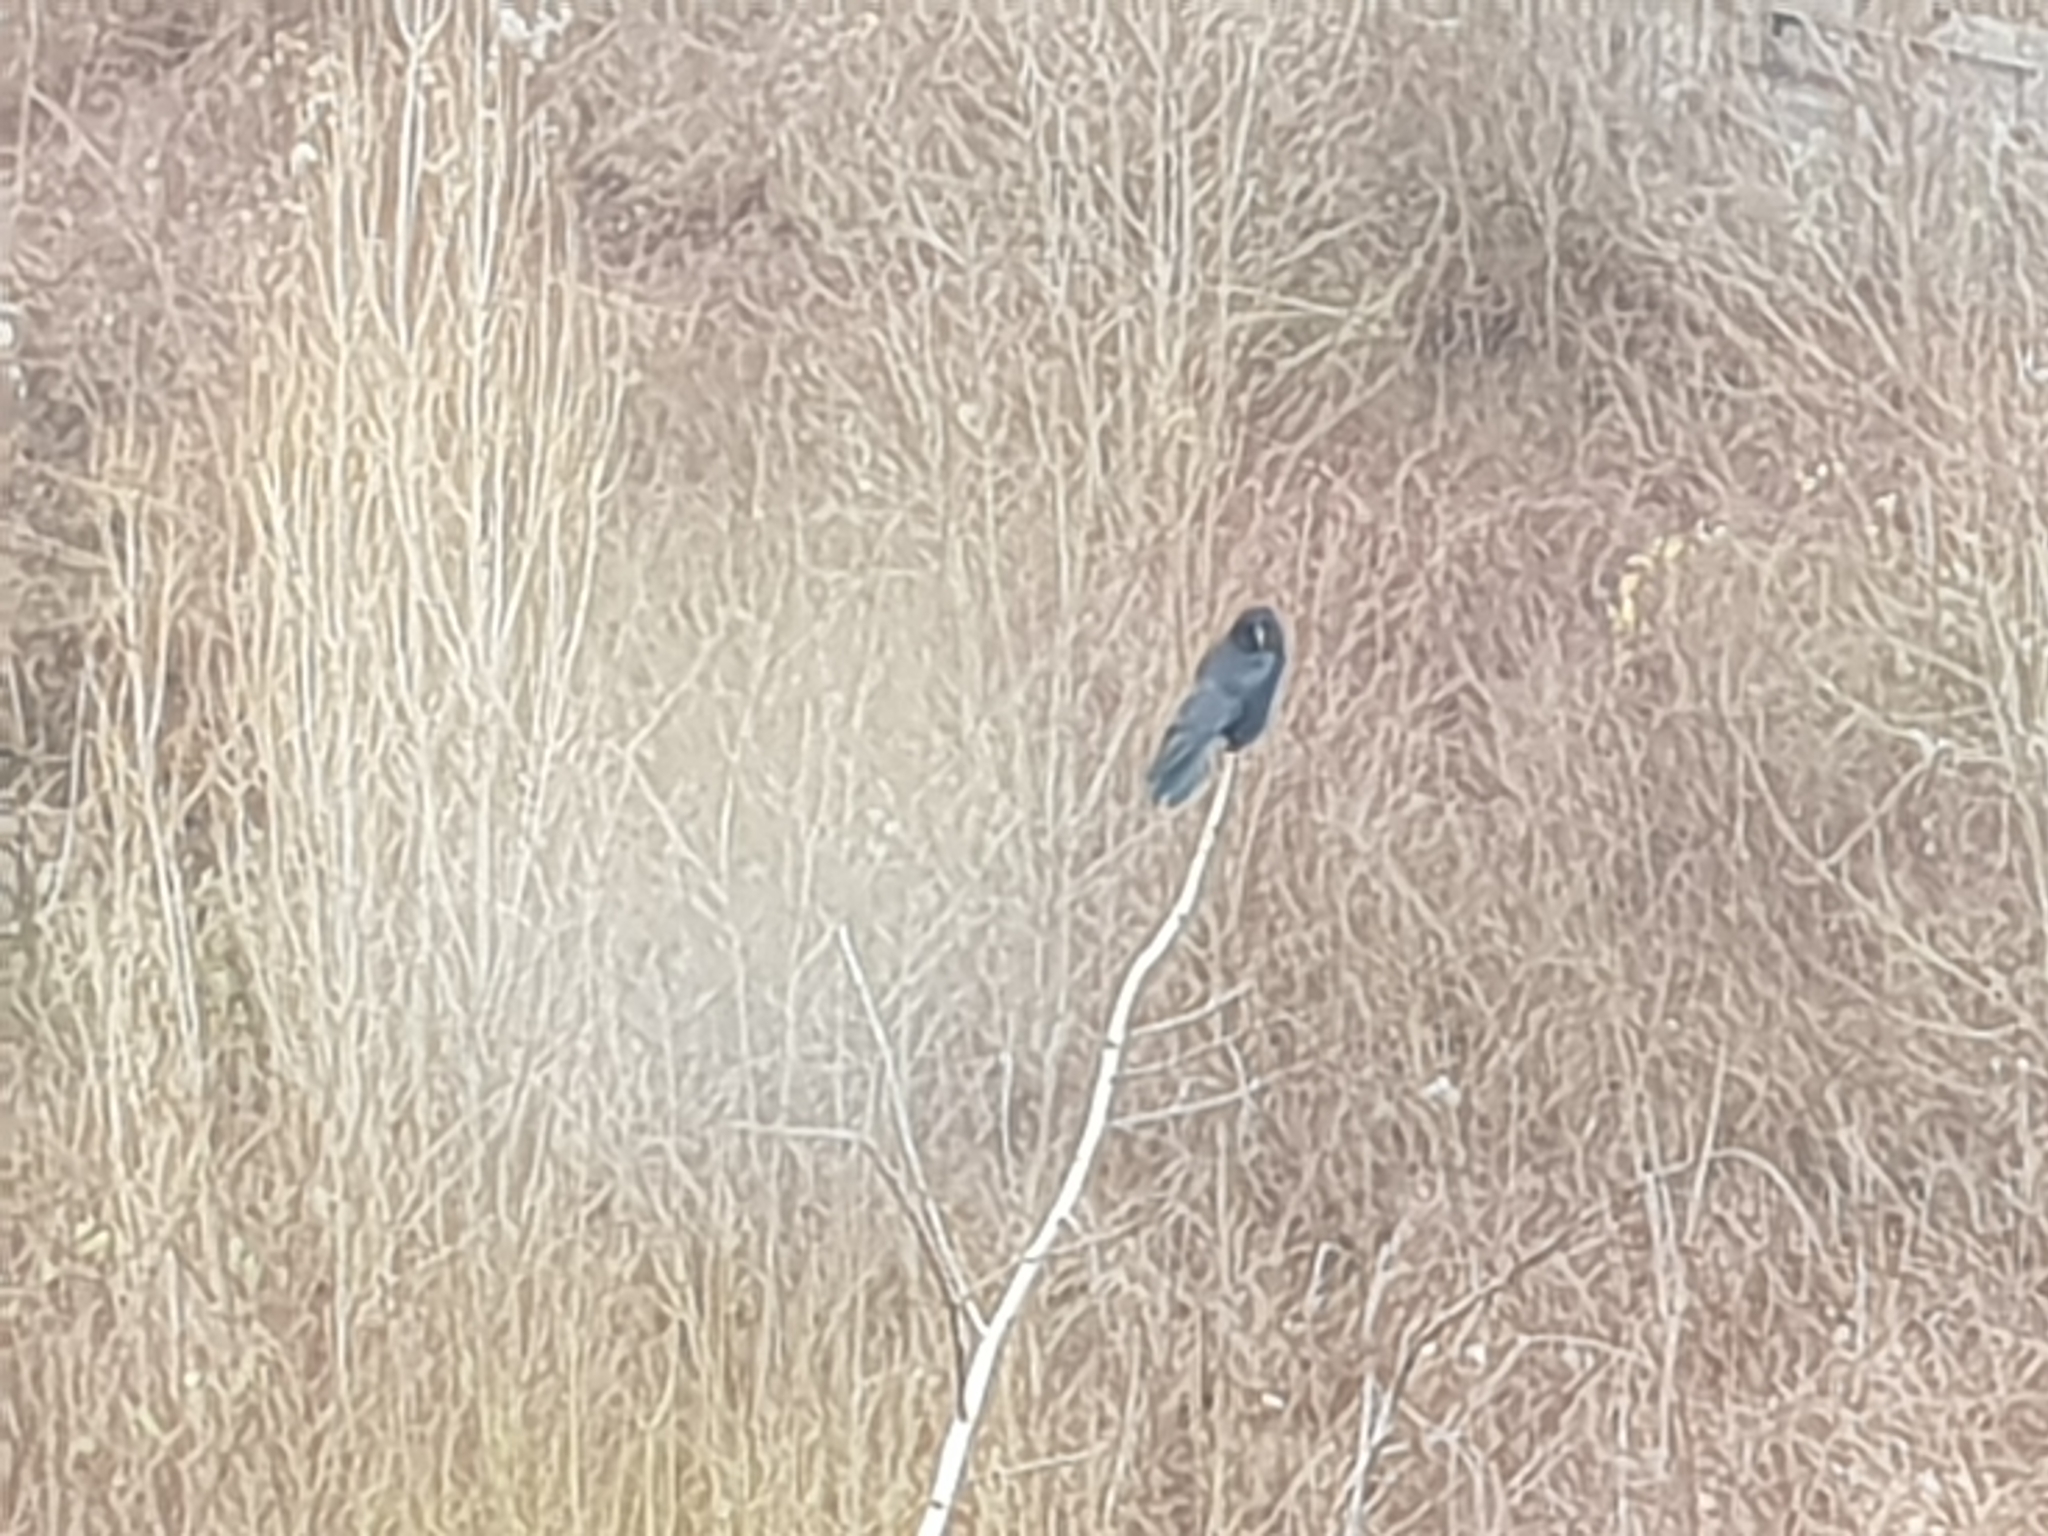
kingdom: Animalia
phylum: Chordata
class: Aves
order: Passeriformes
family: Corvidae
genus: Corvus
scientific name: Corvus corone
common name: Carrion crow
